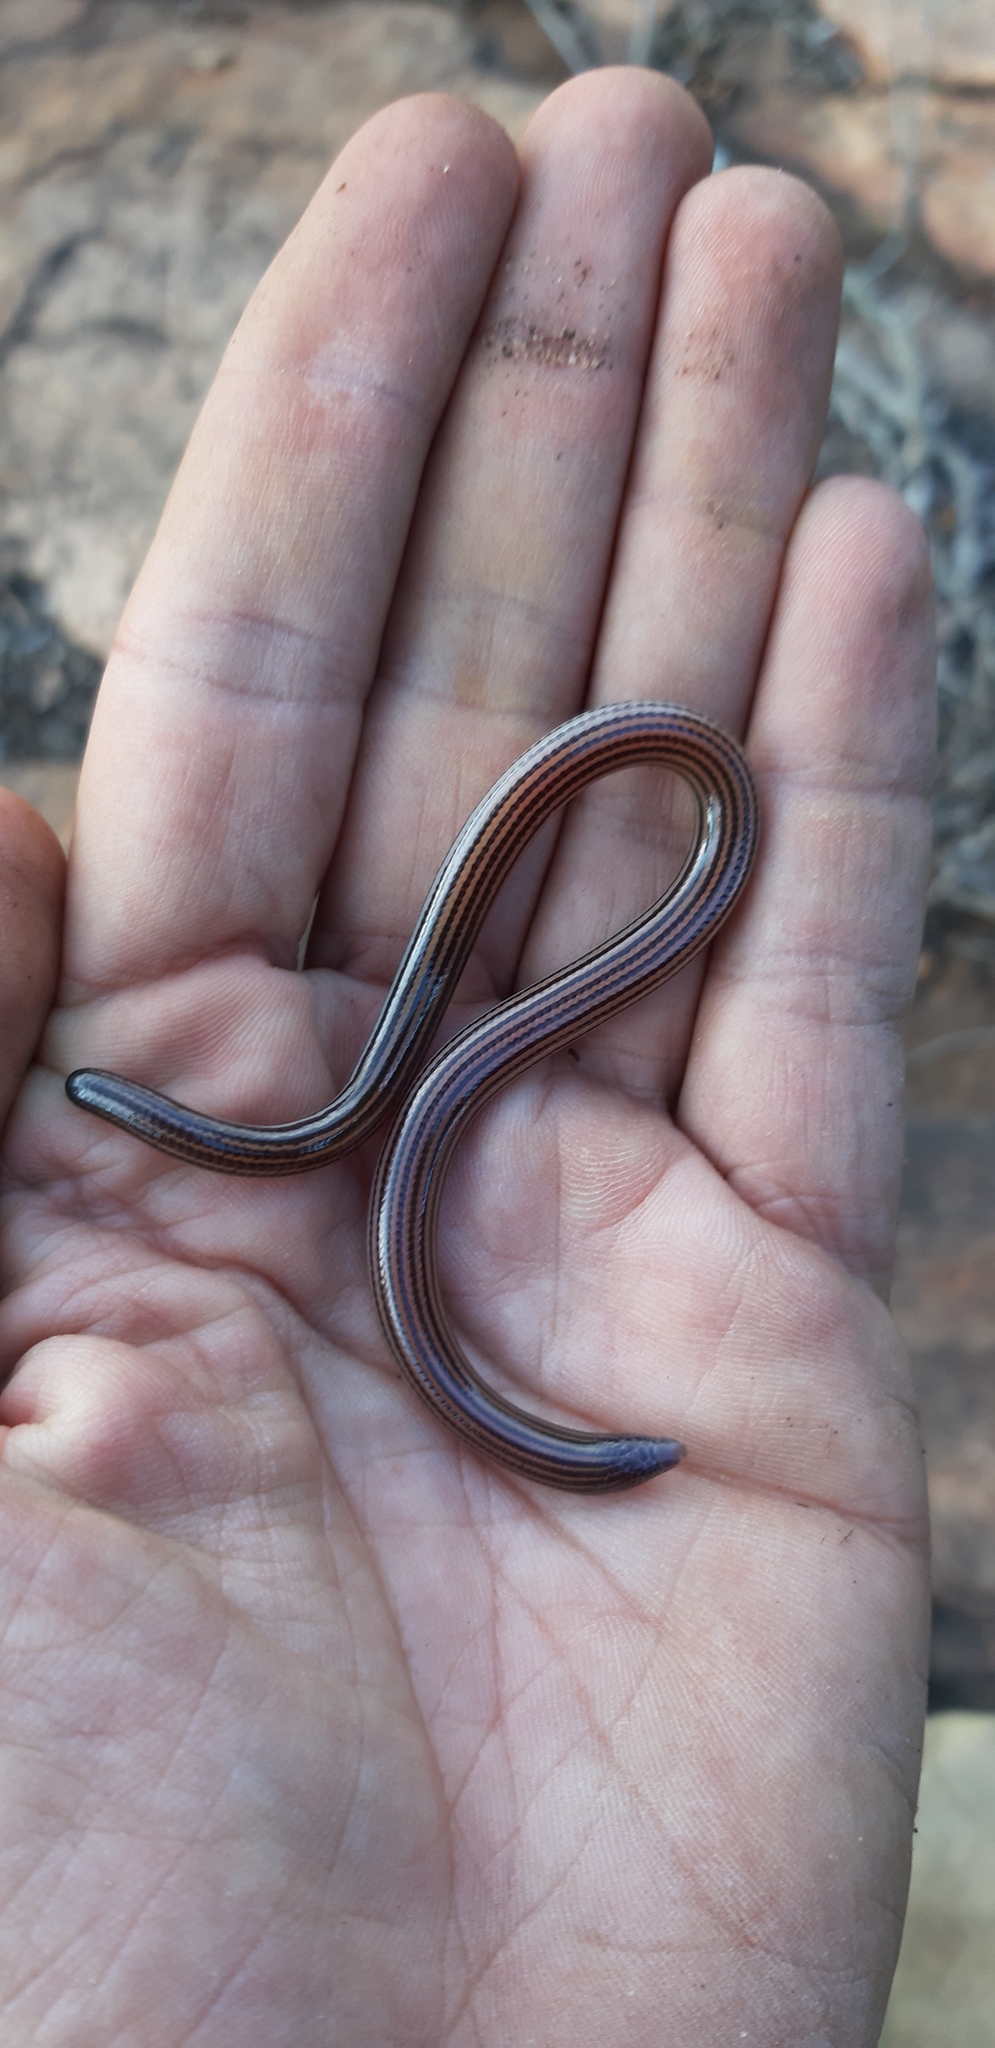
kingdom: Animalia
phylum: Chordata
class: Squamata
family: Scincidae
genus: Acontias
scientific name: Acontias cregoi
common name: Cregoi's blind legless skink
